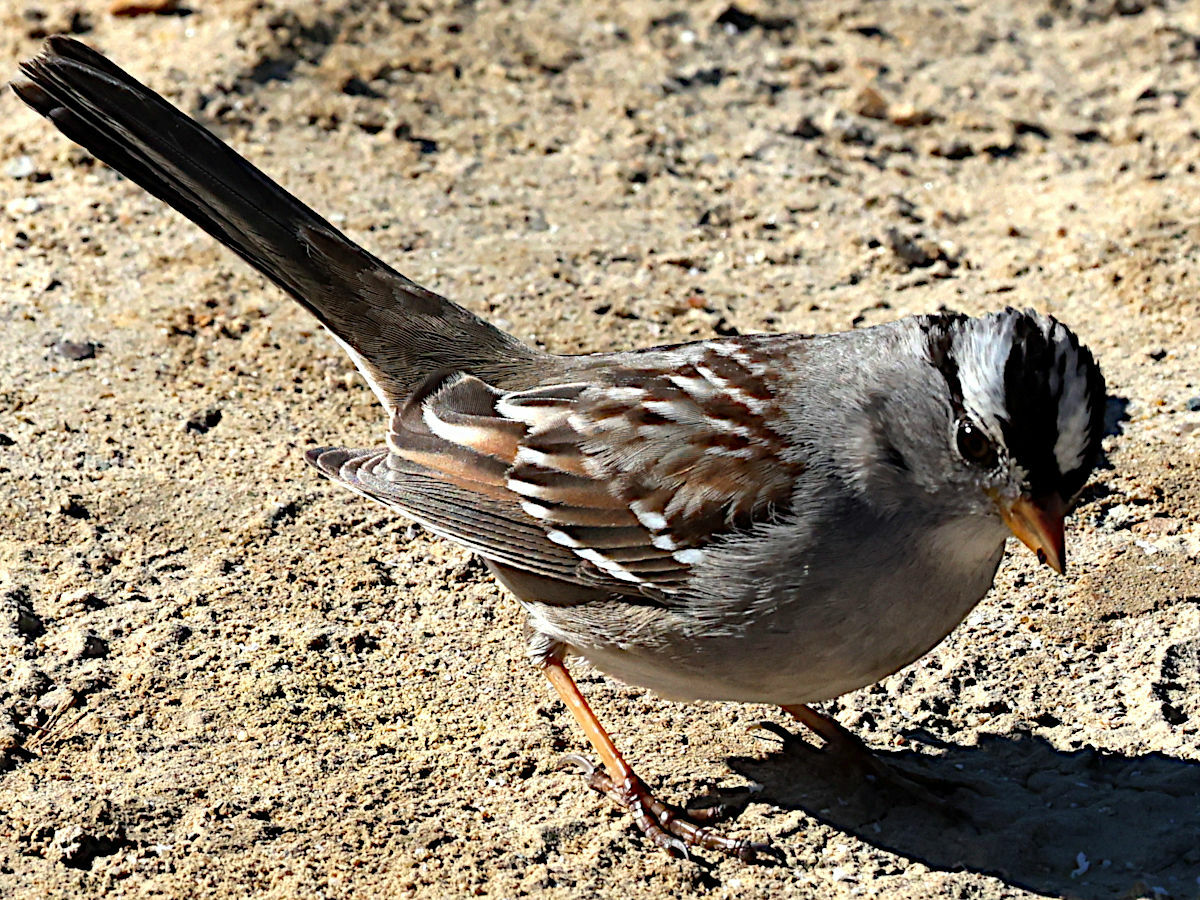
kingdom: Animalia
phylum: Chordata
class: Aves
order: Passeriformes
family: Passerellidae
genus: Zonotrichia
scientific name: Zonotrichia leucophrys
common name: White-crowned sparrow
